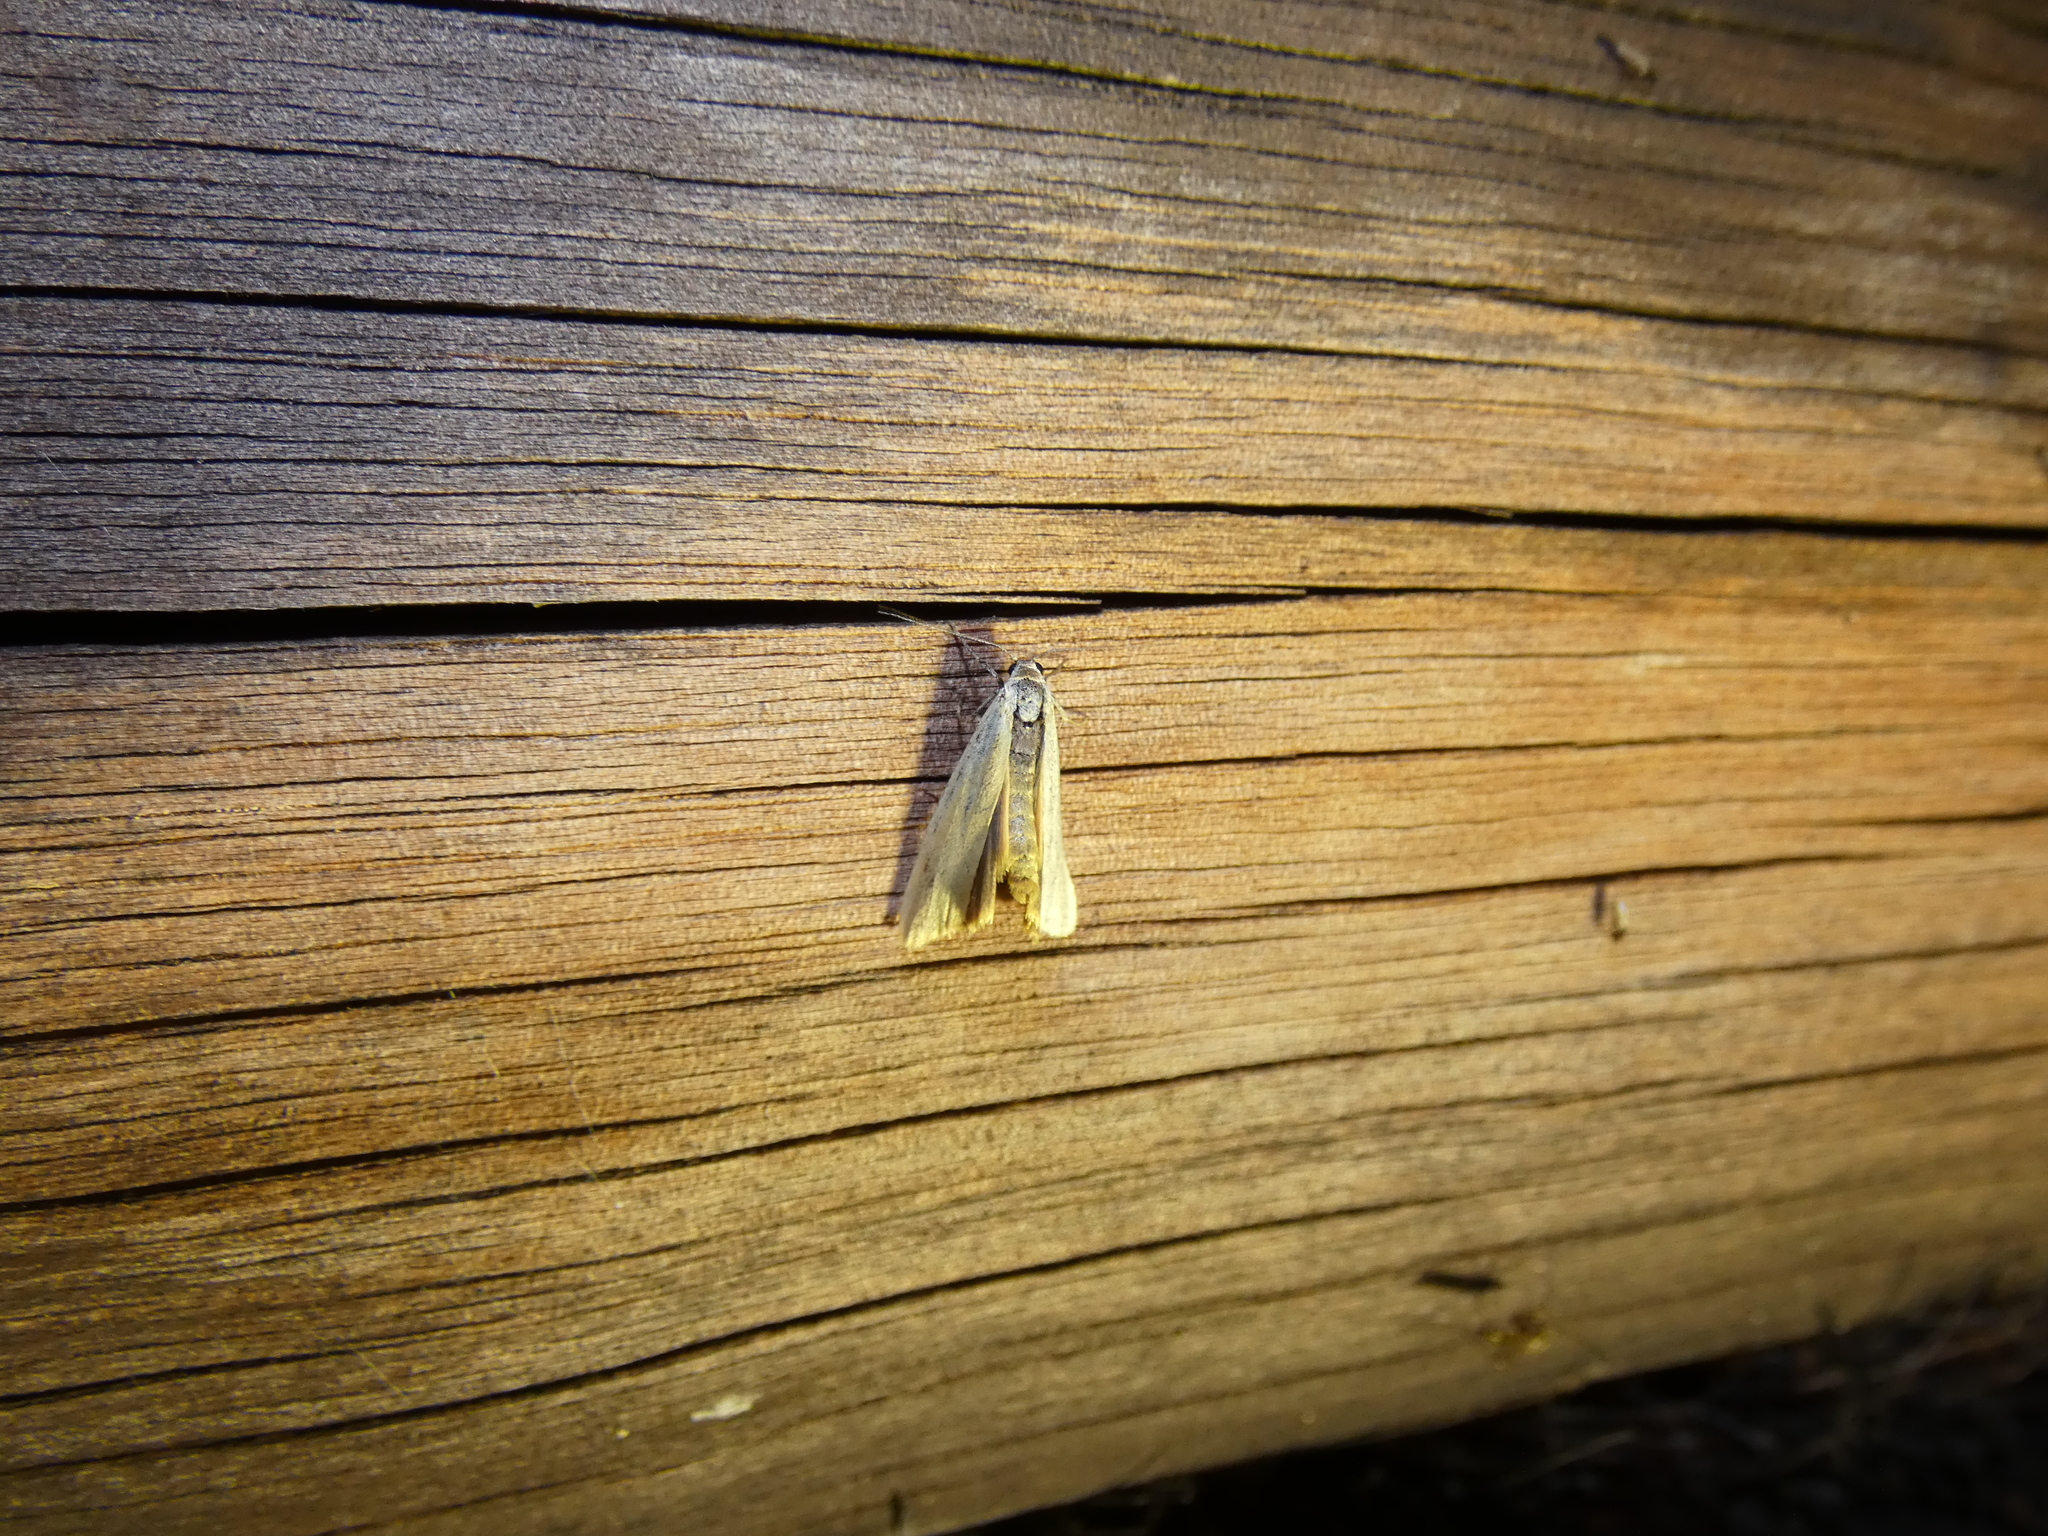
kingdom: Animalia
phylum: Arthropoda
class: Insecta
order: Lepidoptera
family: Erebidae
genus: Indalia
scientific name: Indalia lutarella
